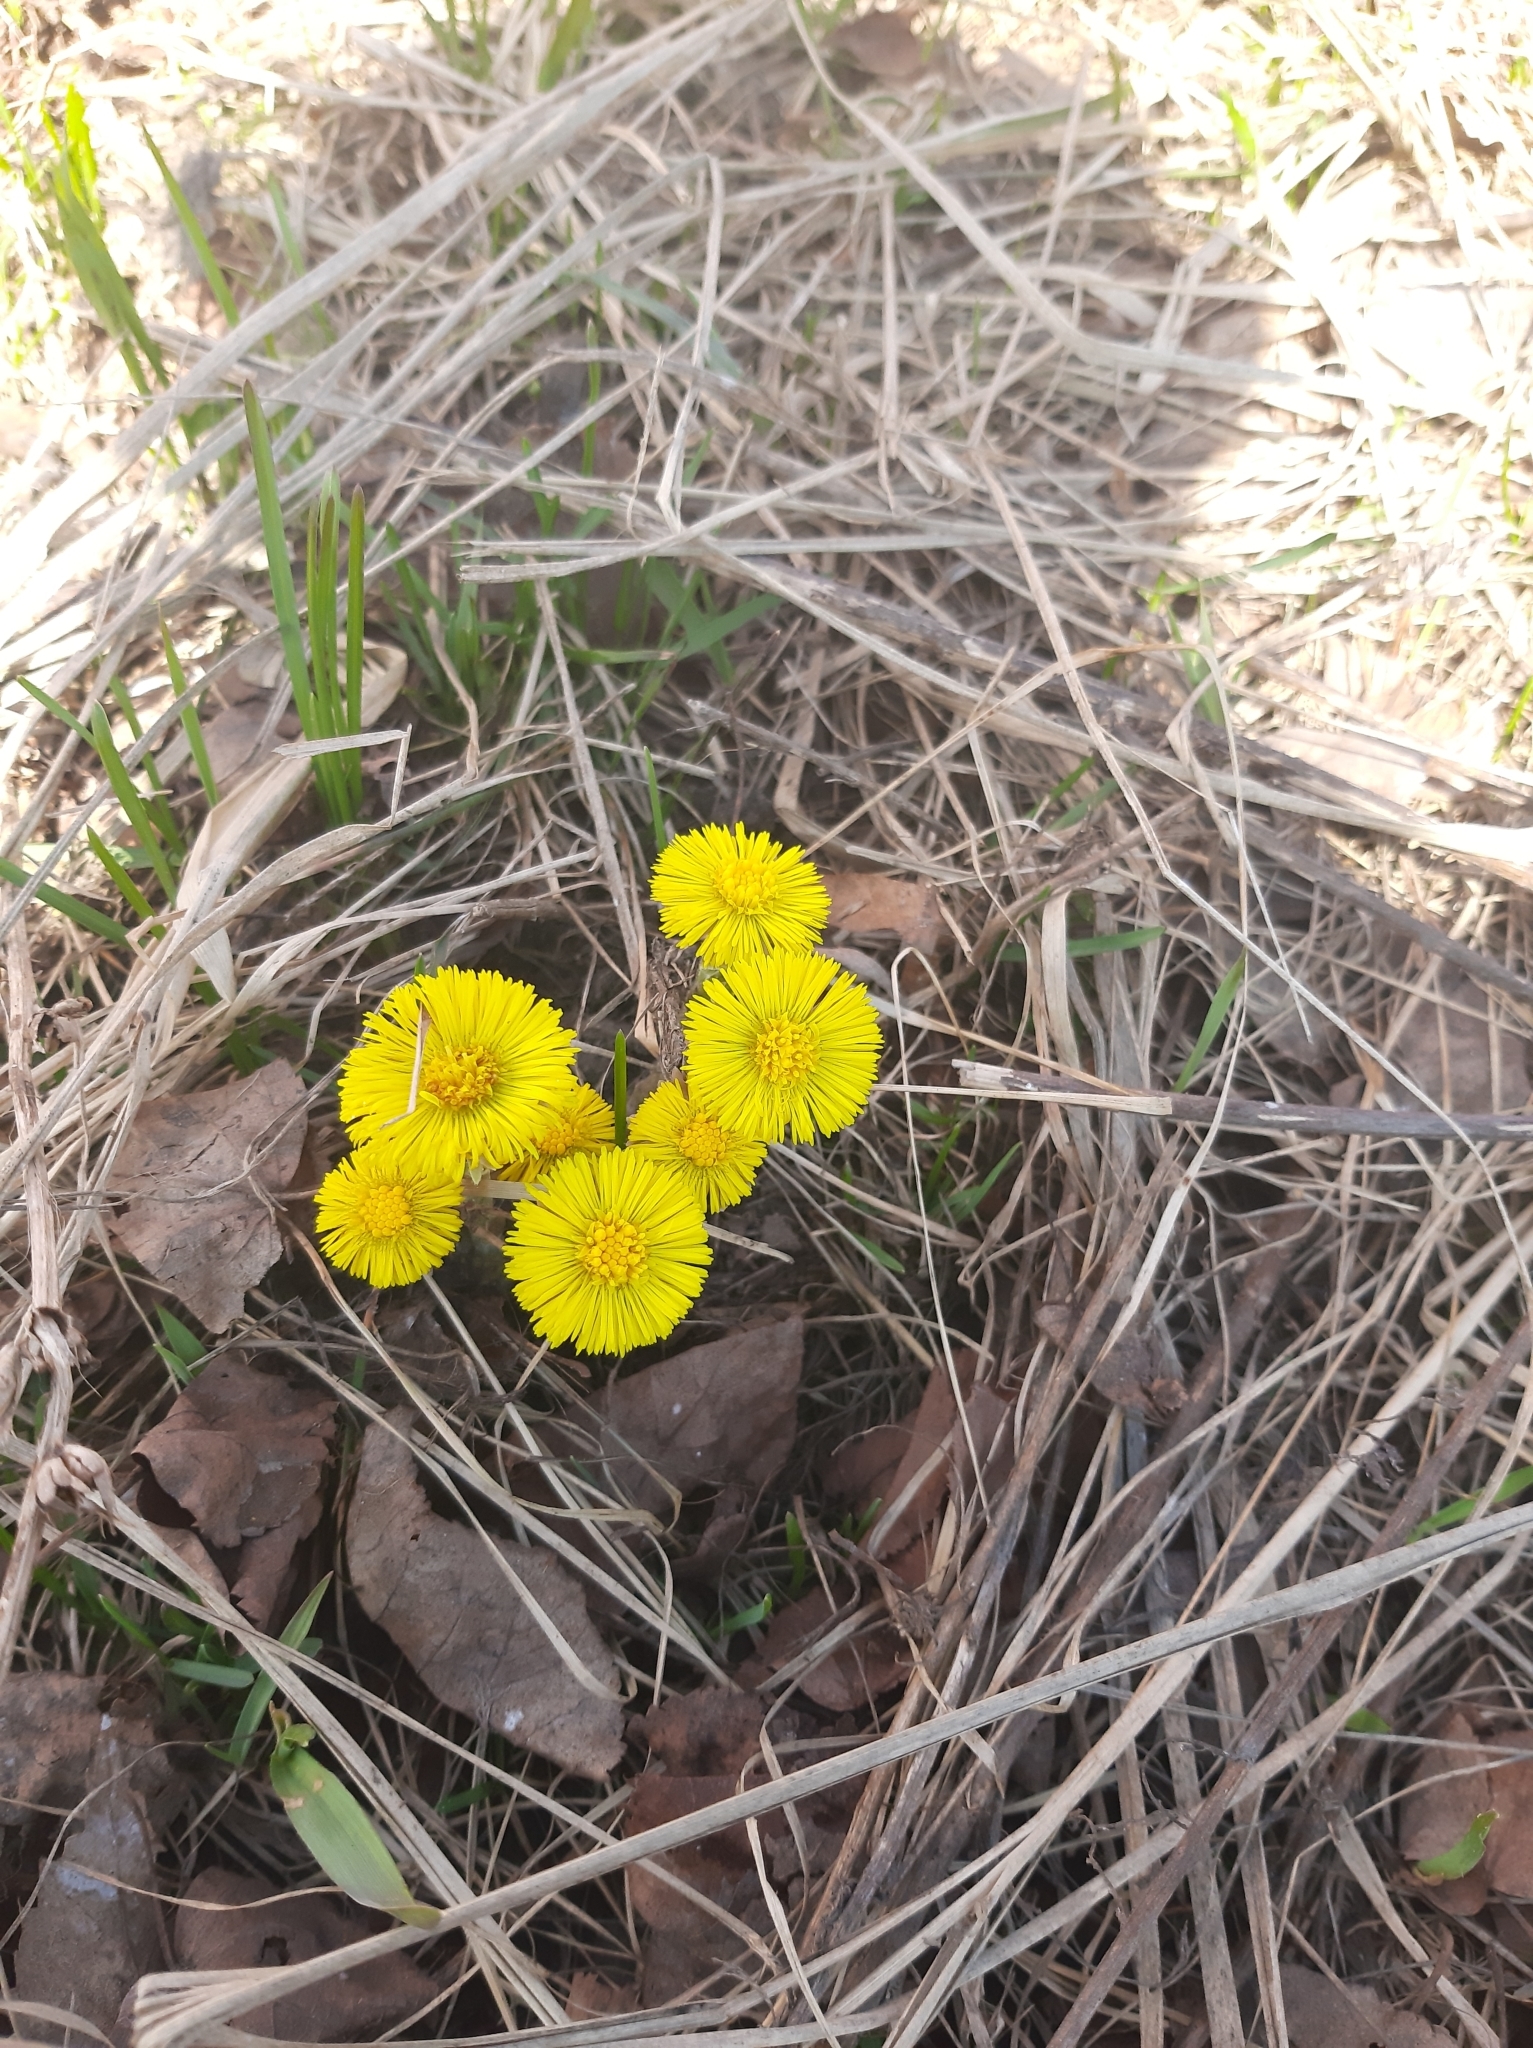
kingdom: Plantae
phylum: Tracheophyta
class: Magnoliopsida
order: Asterales
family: Asteraceae
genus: Tussilago
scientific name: Tussilago farfara
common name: Coltsfoot
